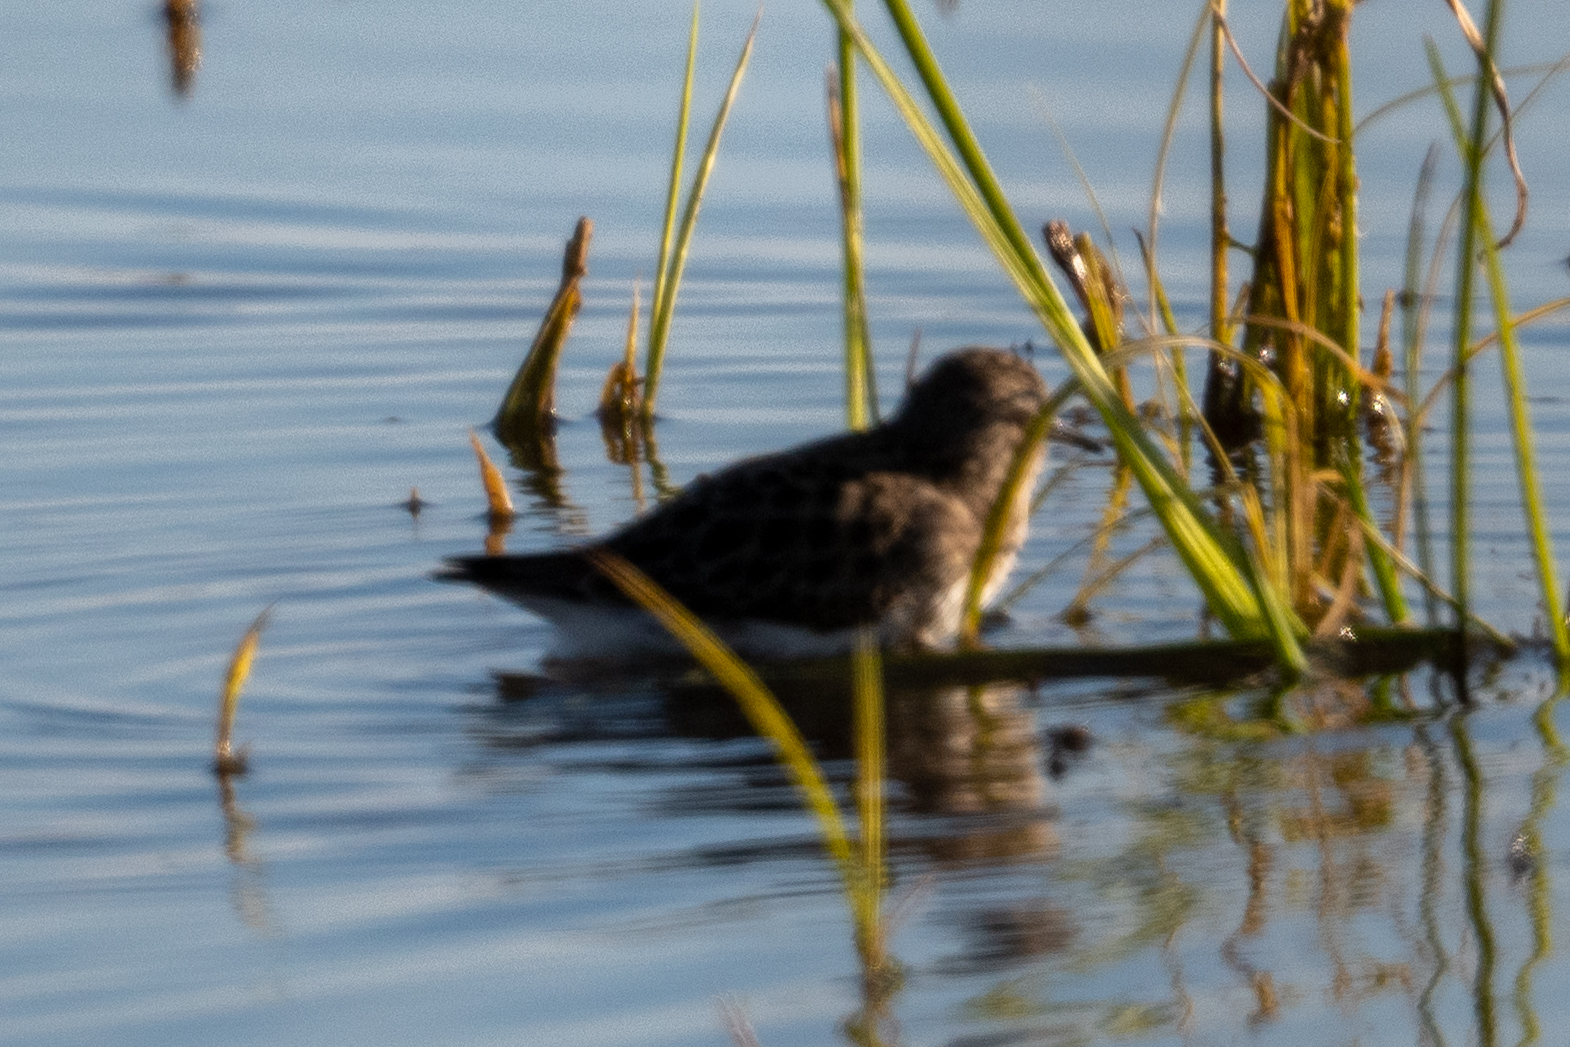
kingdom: Animalia
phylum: Chordata
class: Aves
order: Charadriiformes
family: Scolopacidae
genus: Calidris
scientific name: Calidris minutilla
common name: Least sandpiper
